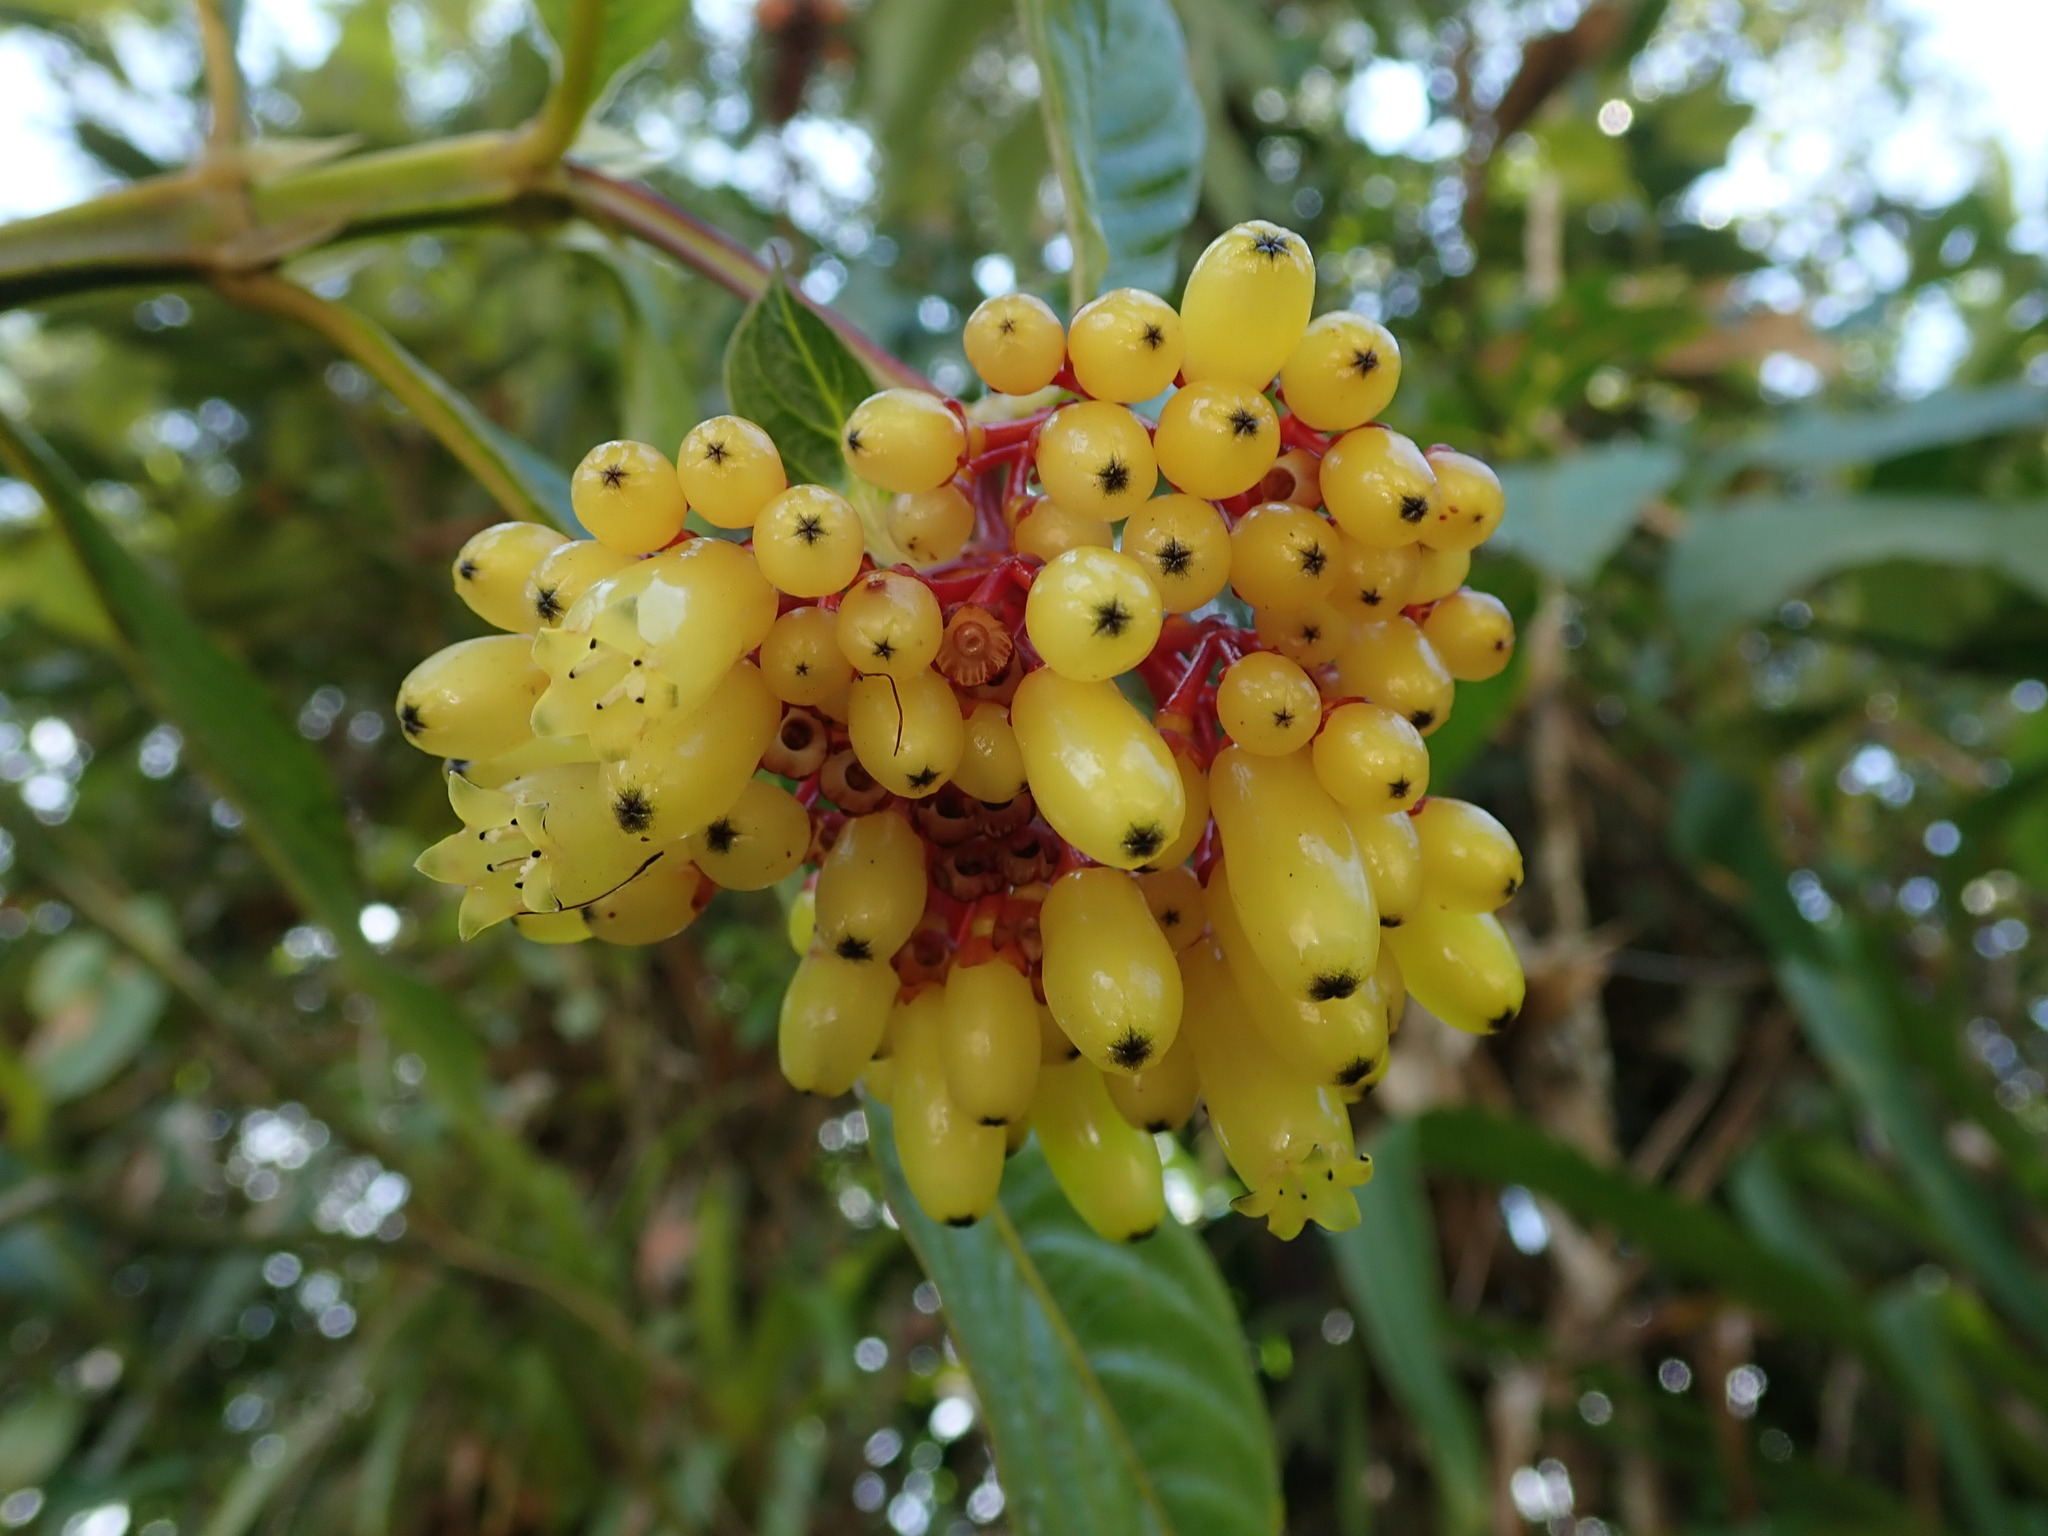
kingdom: Plantae
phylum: Tracheophyta
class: Magnoliopsida
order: Gentianales
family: Rubiaceae
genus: Palicourea
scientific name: Palicourea subalatoides
